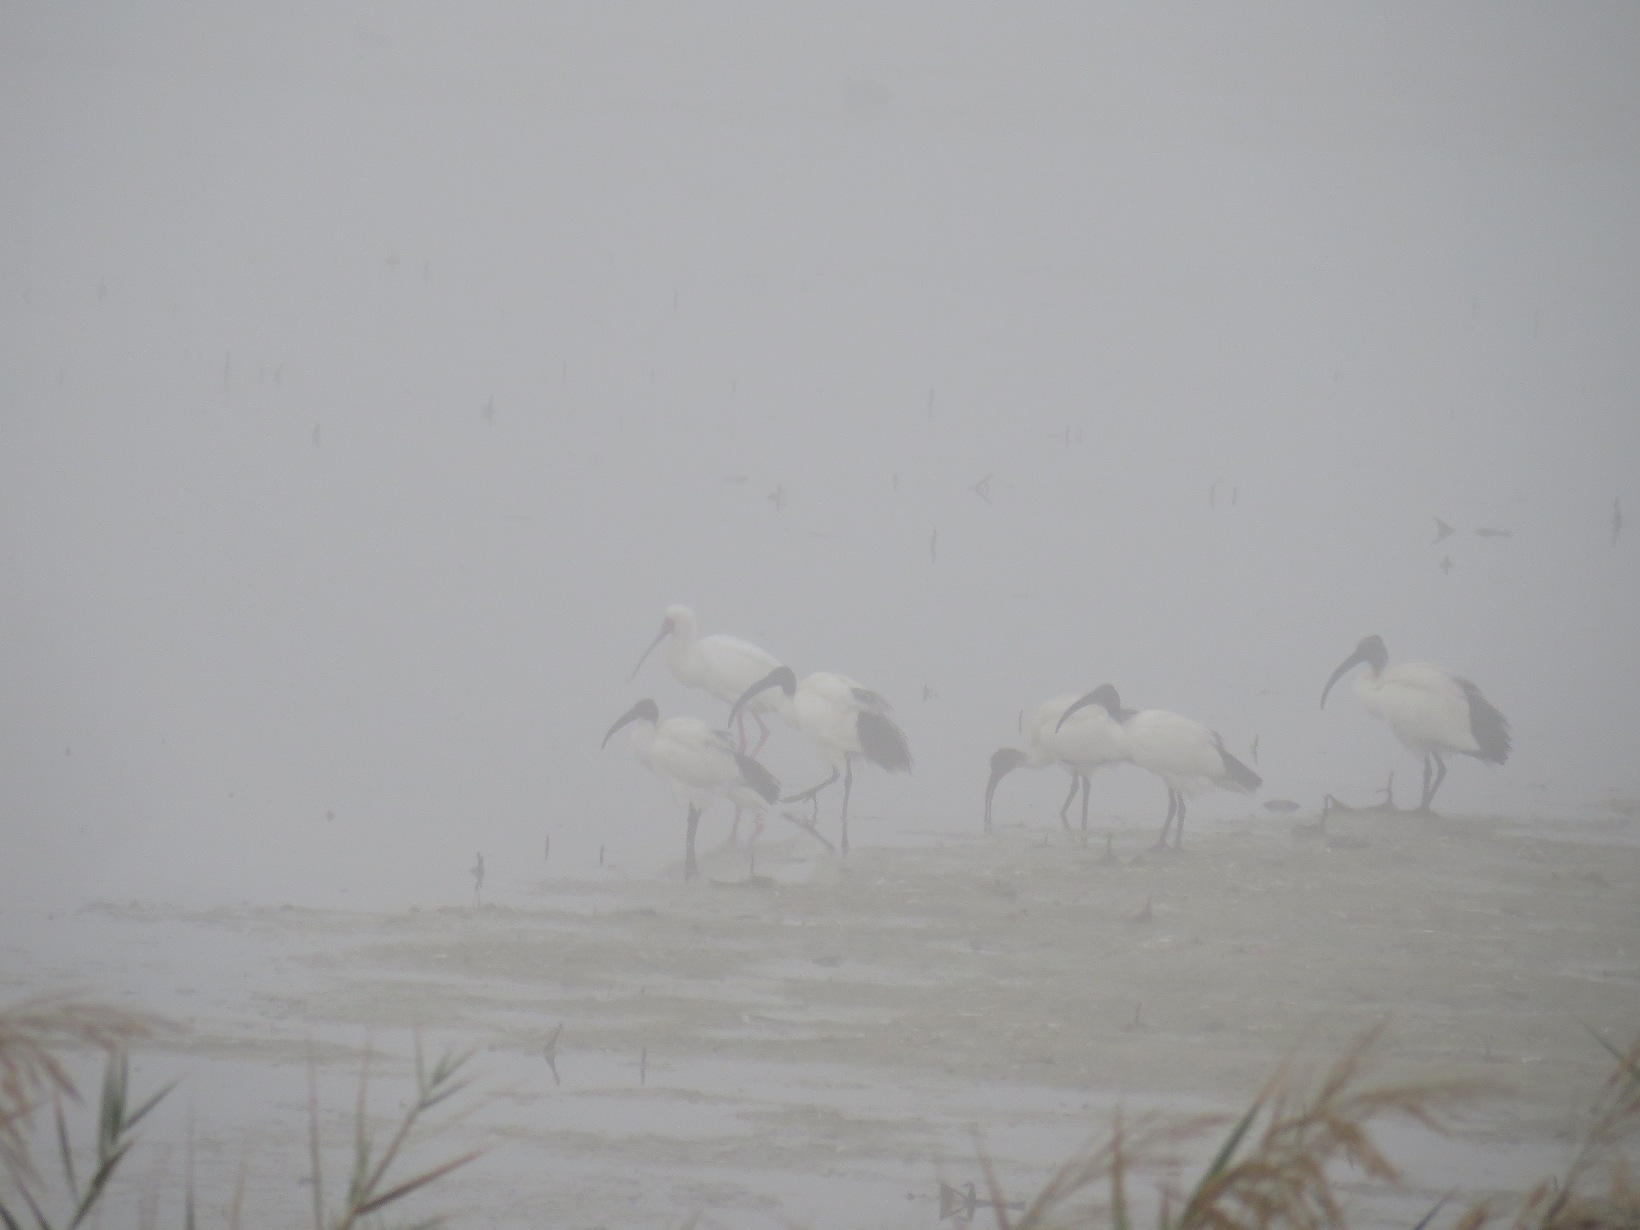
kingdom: Animalia
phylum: Chordata
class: Aves
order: Pelecaniformes
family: Threskiornithidae
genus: Threskiornis
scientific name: Threskiornis aethiopicus
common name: Sacred ibis
